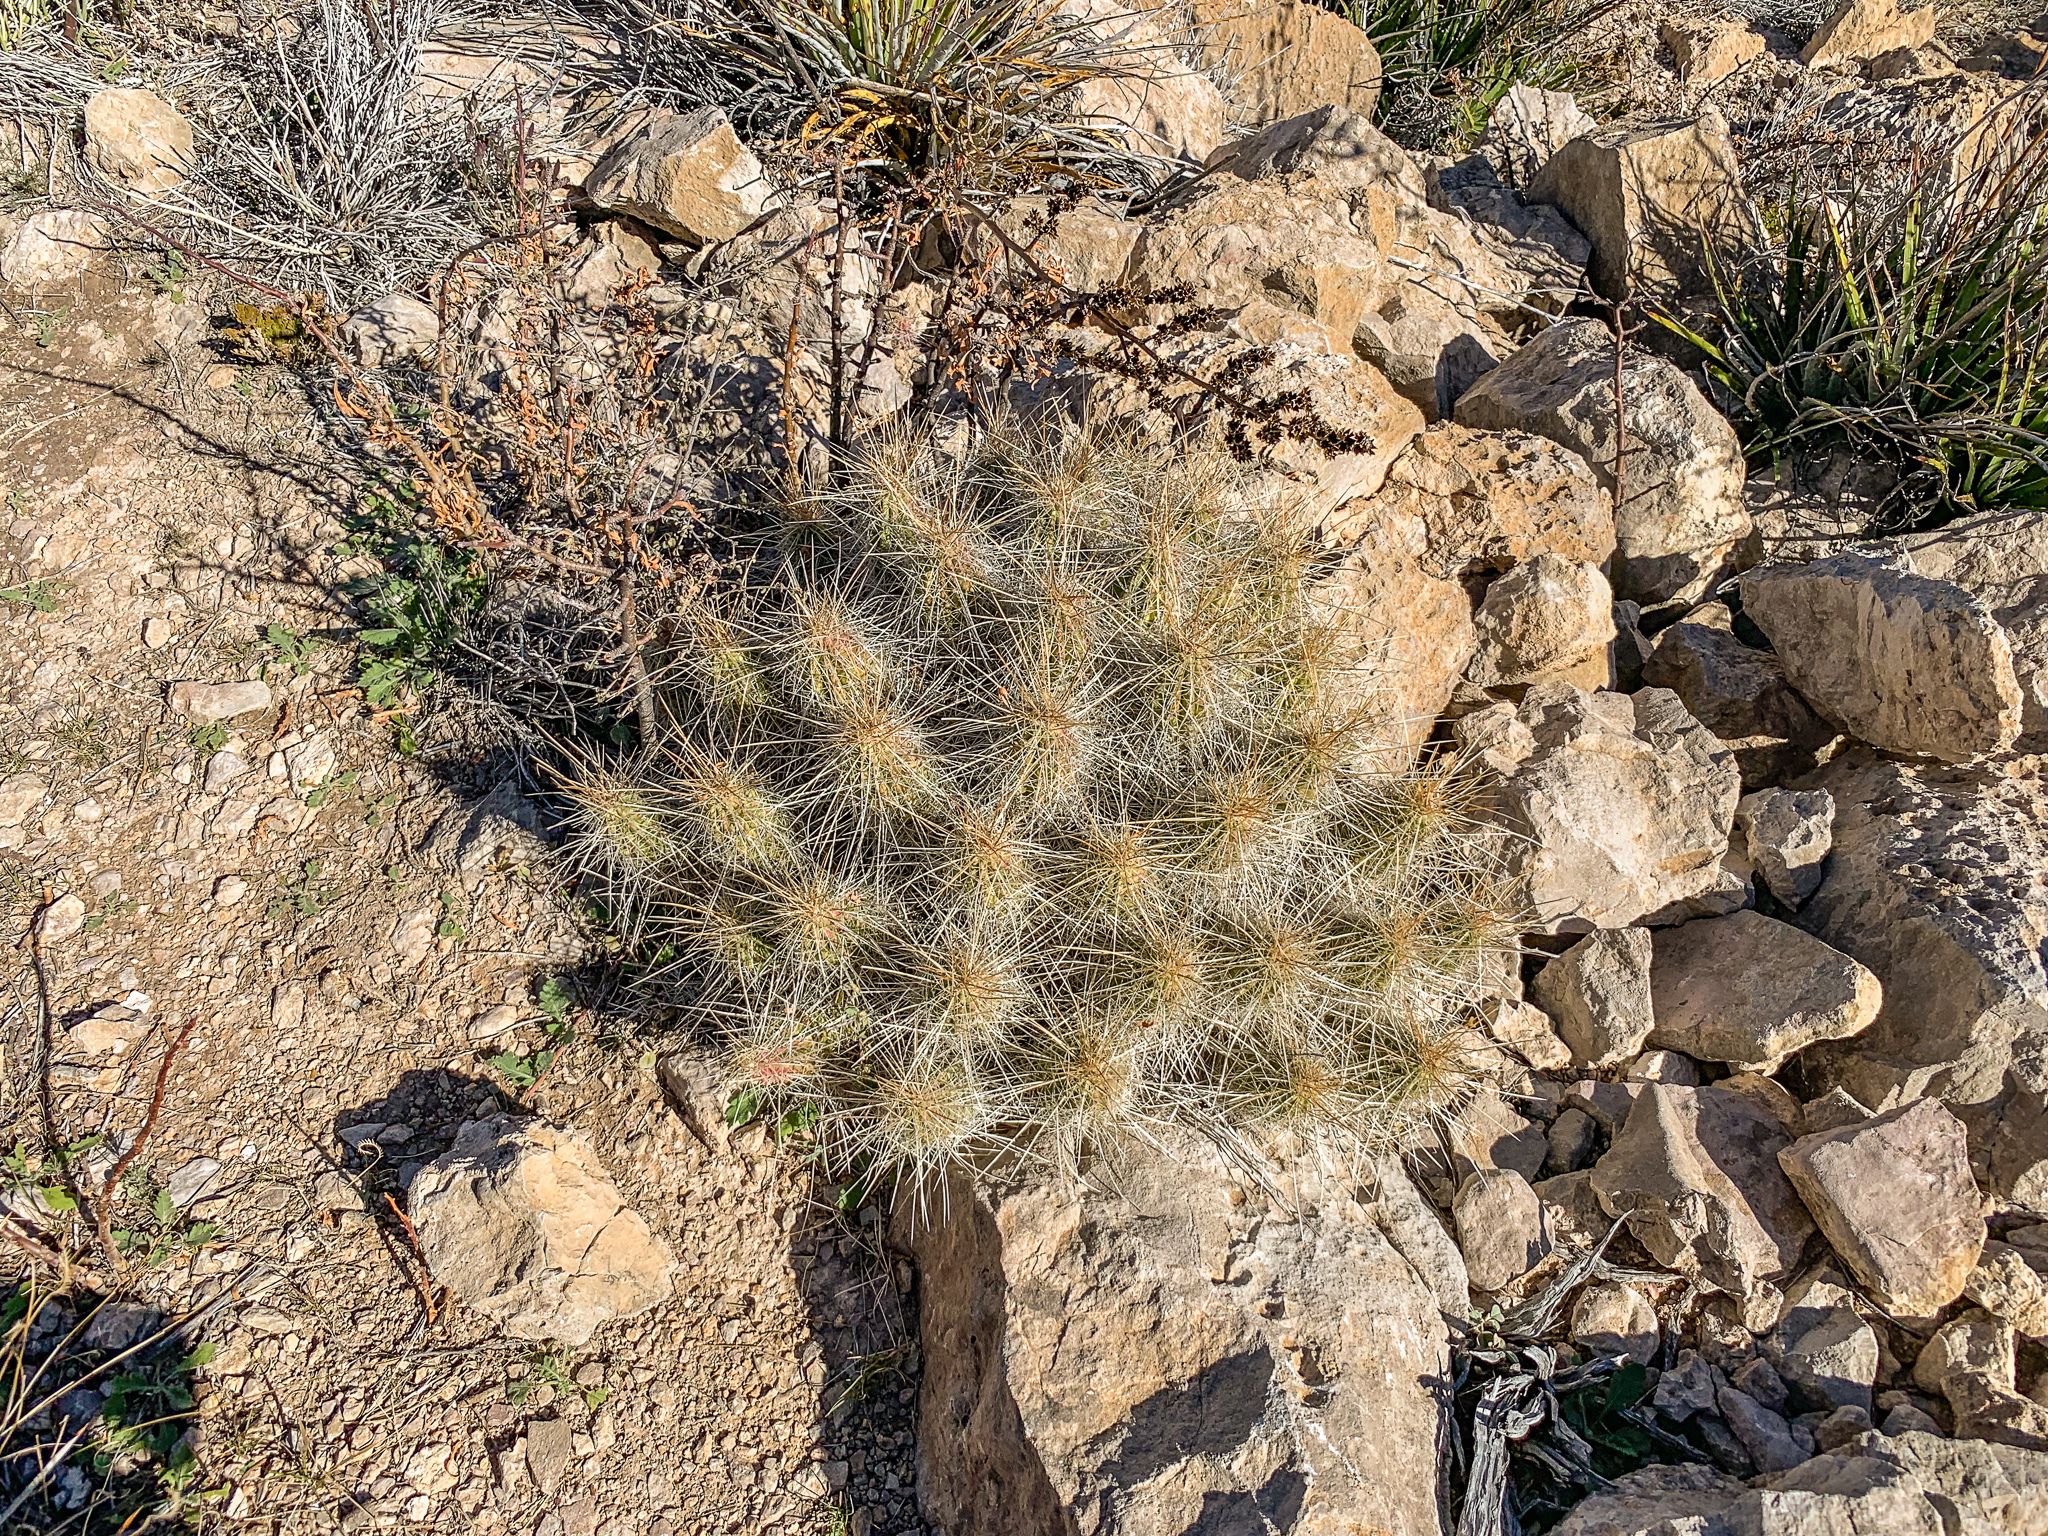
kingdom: Plantae
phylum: Tracheophyta
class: Magnoliopsida
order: Caryophyllales
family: Cactaceae
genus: Echinocereus
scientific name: Echinocereus stramineus
